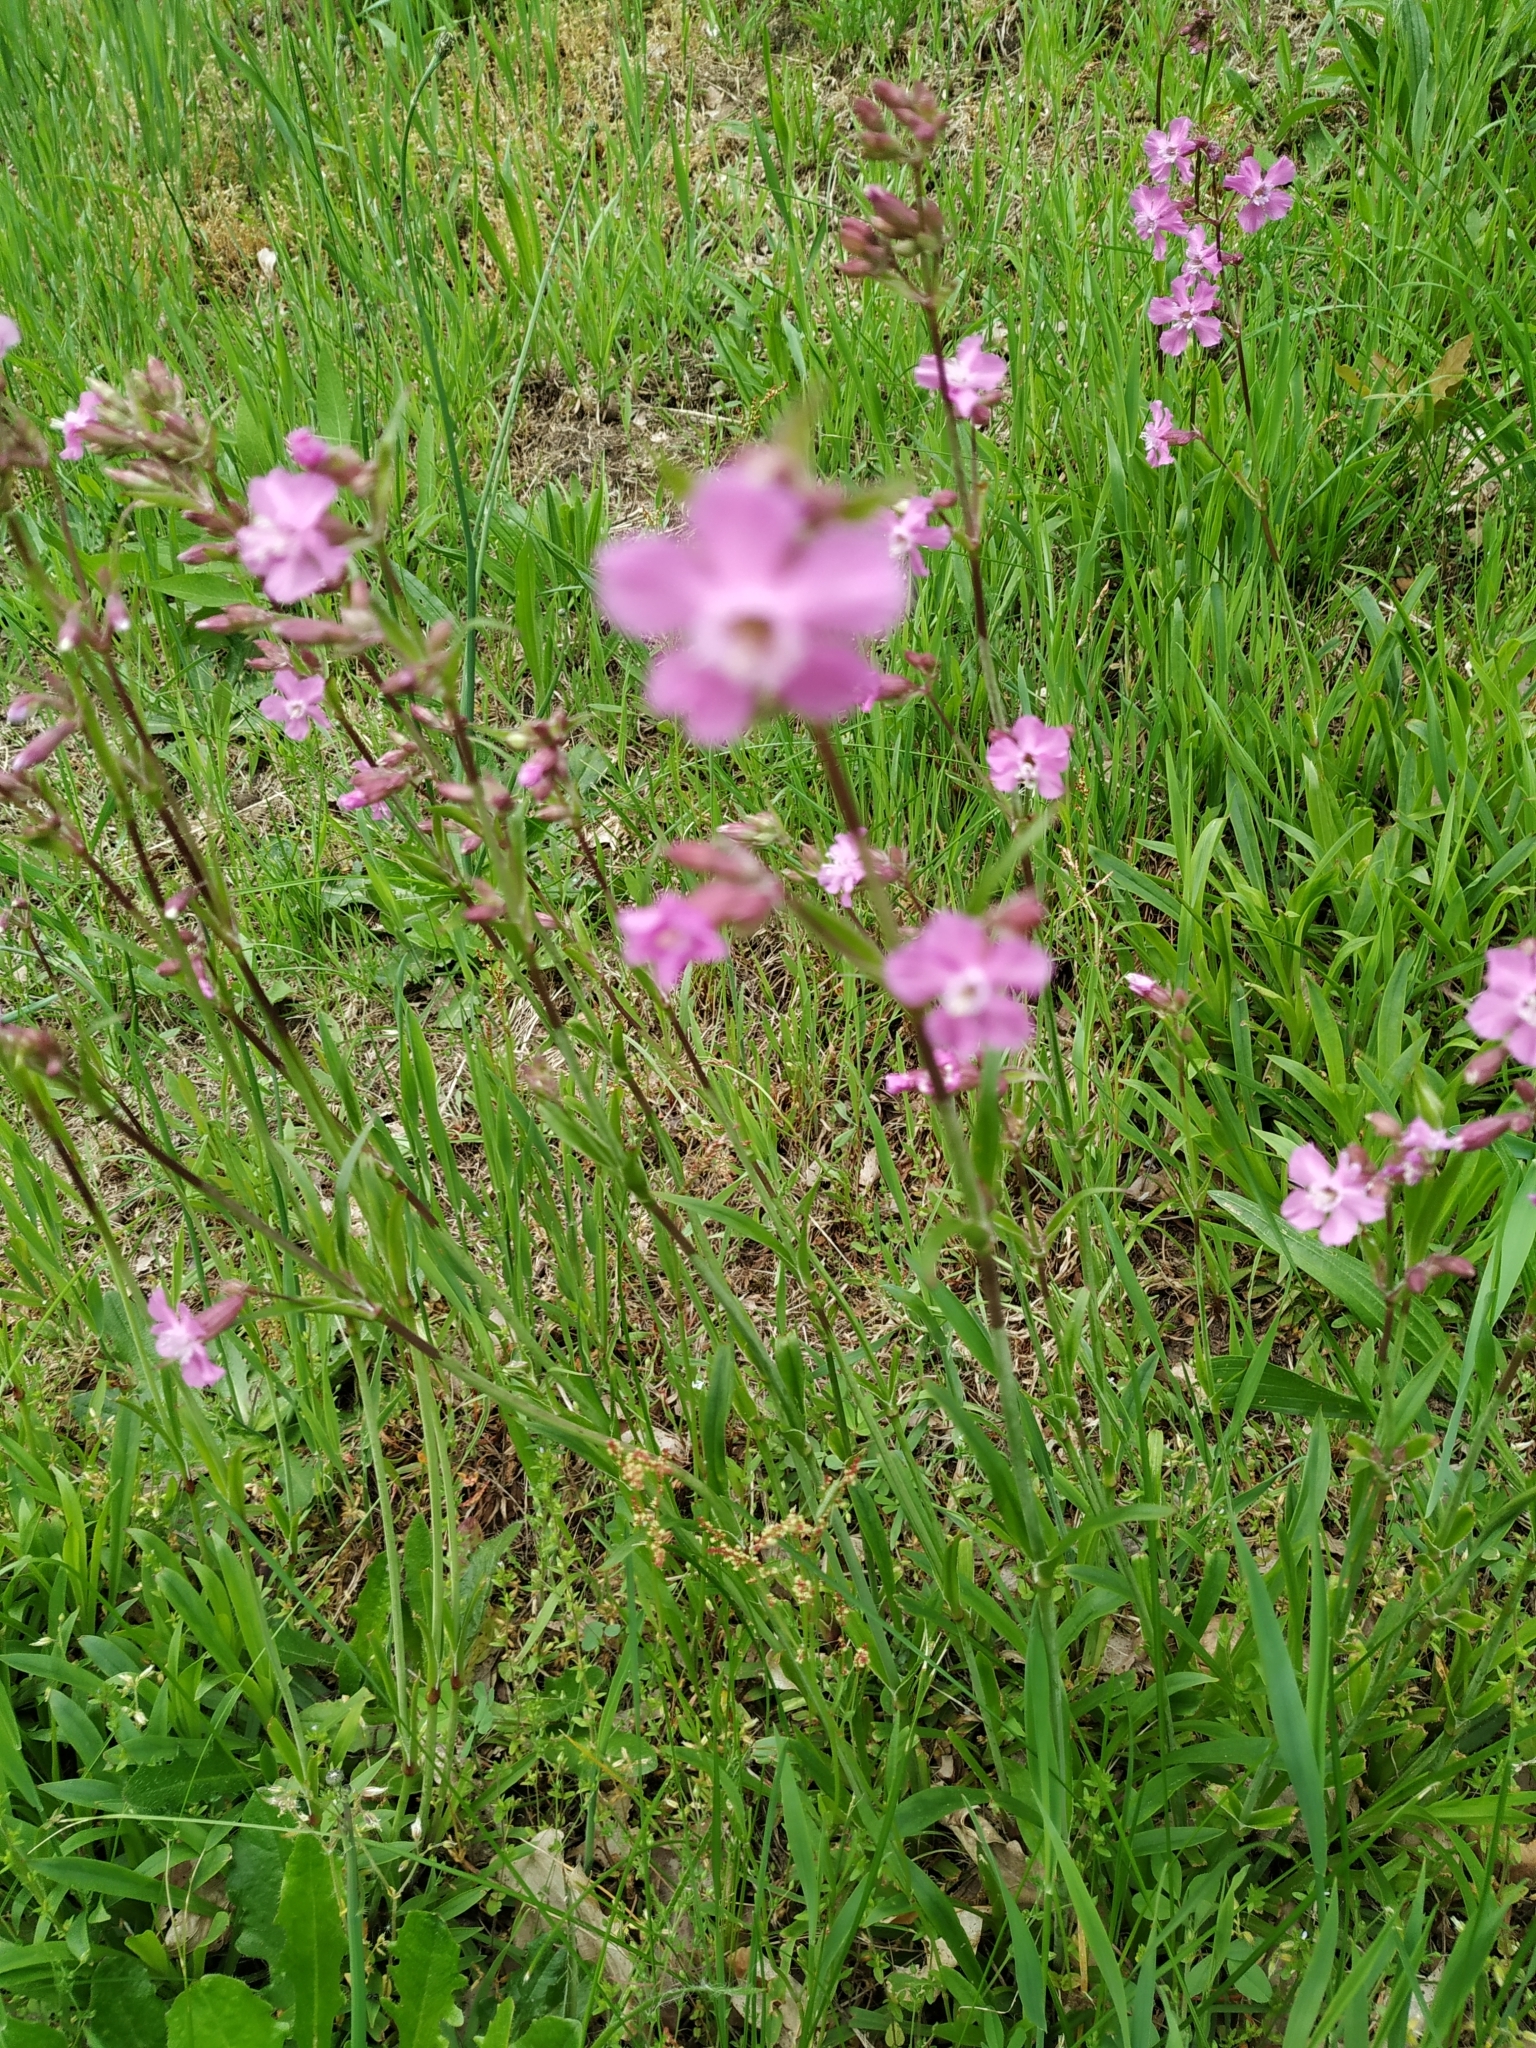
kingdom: Plantae
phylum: Tracheophyta
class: Magnoliopsida
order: Caryophyllales
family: Caryophyllaceae
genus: Viscaria
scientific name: Viscaria vulgaris
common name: Clammy campion
